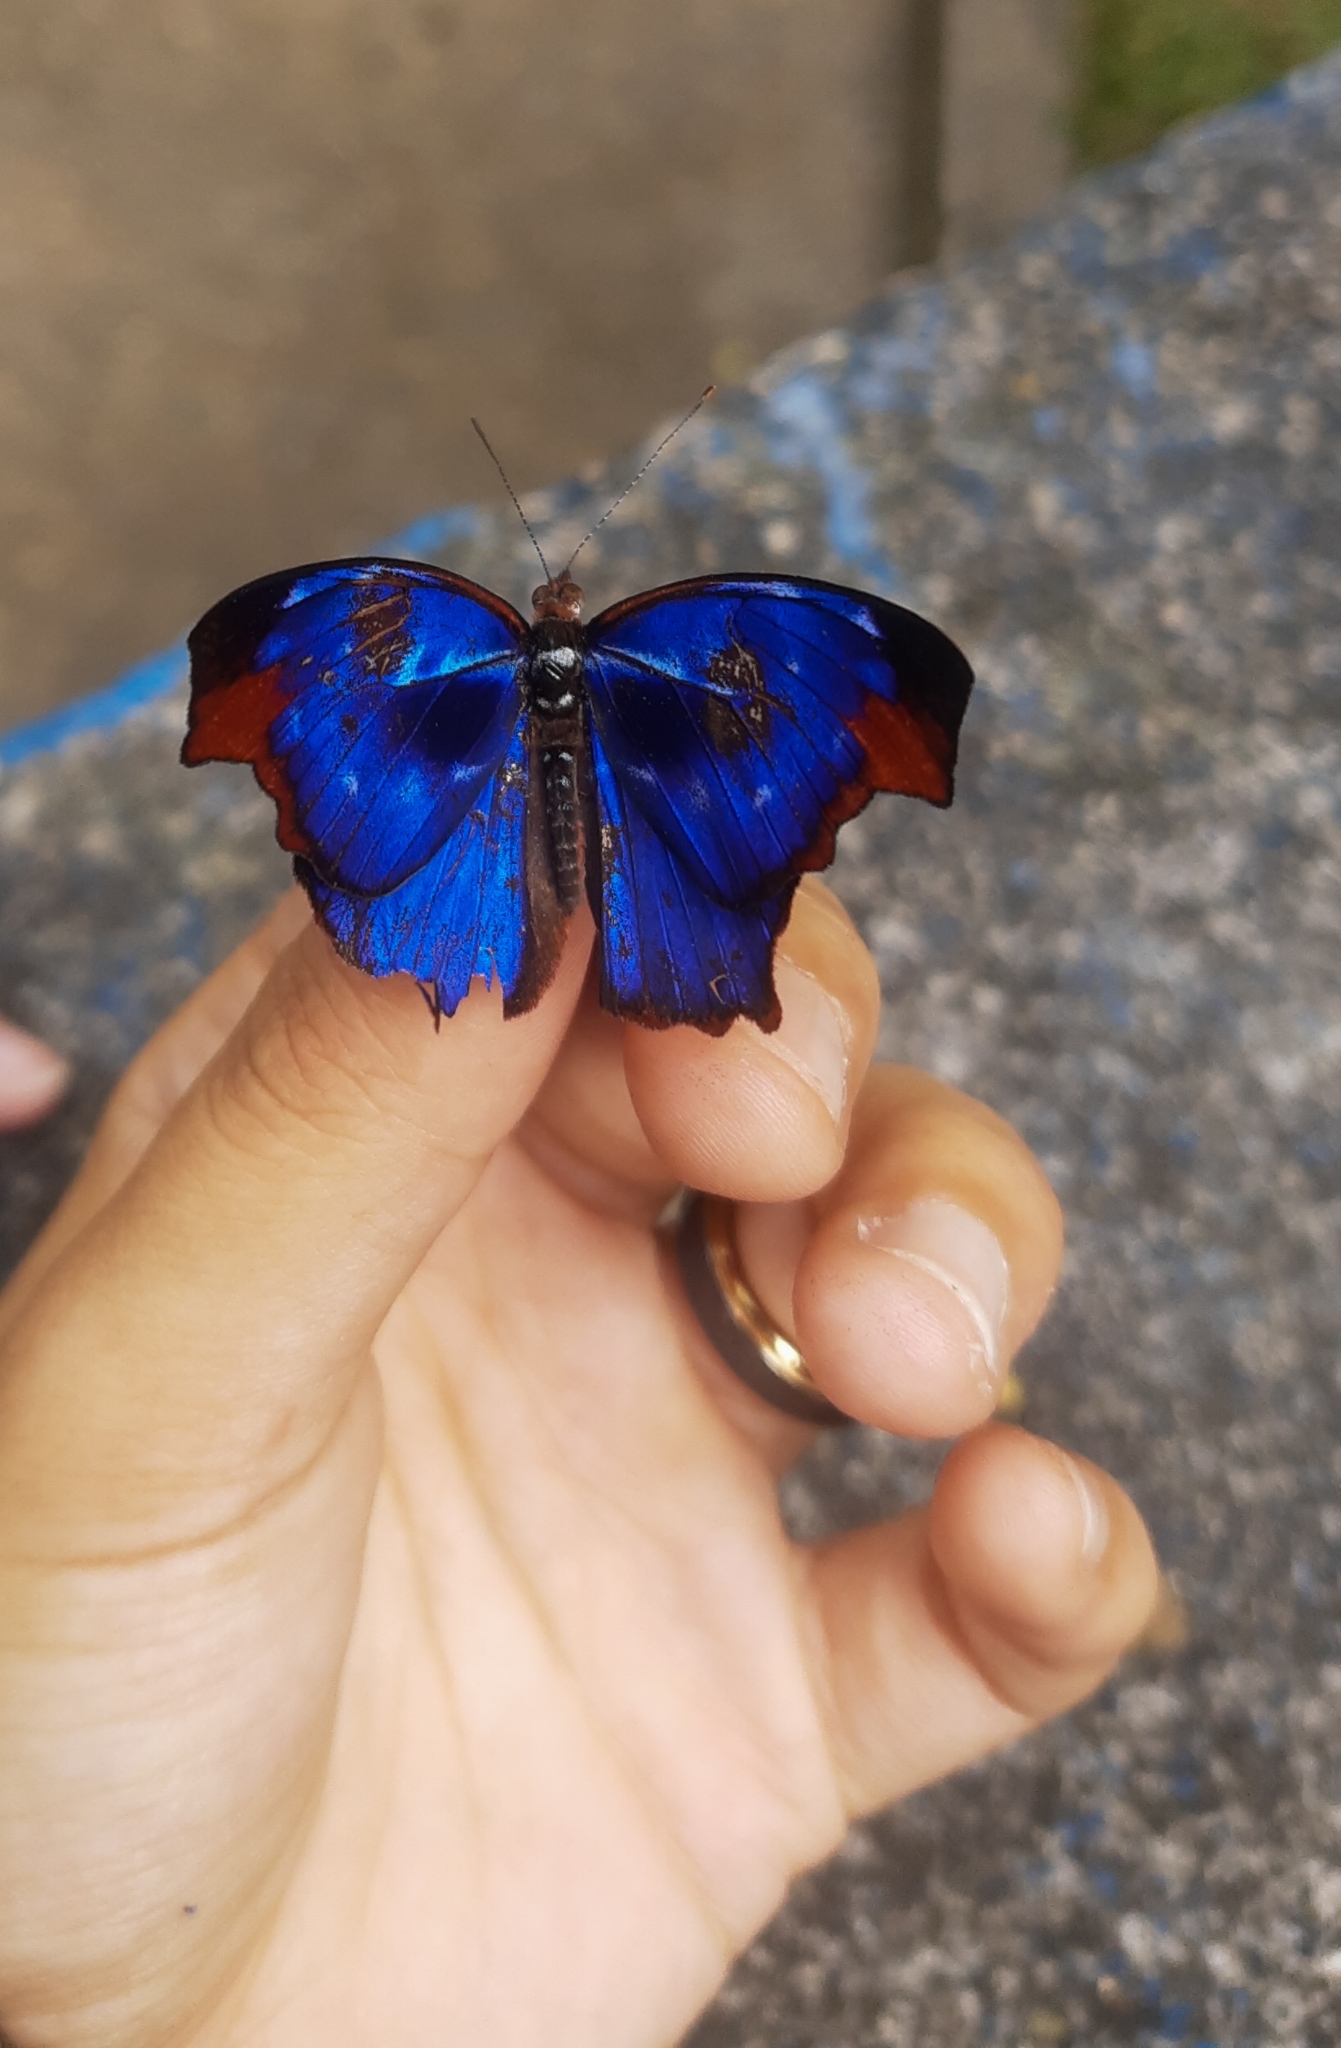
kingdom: Animalia
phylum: Arthropoda
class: Insecta
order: Lepidoptera
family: Nymphalidae
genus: Myscelia
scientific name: Myscelia orsis
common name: Orsis bluewing
